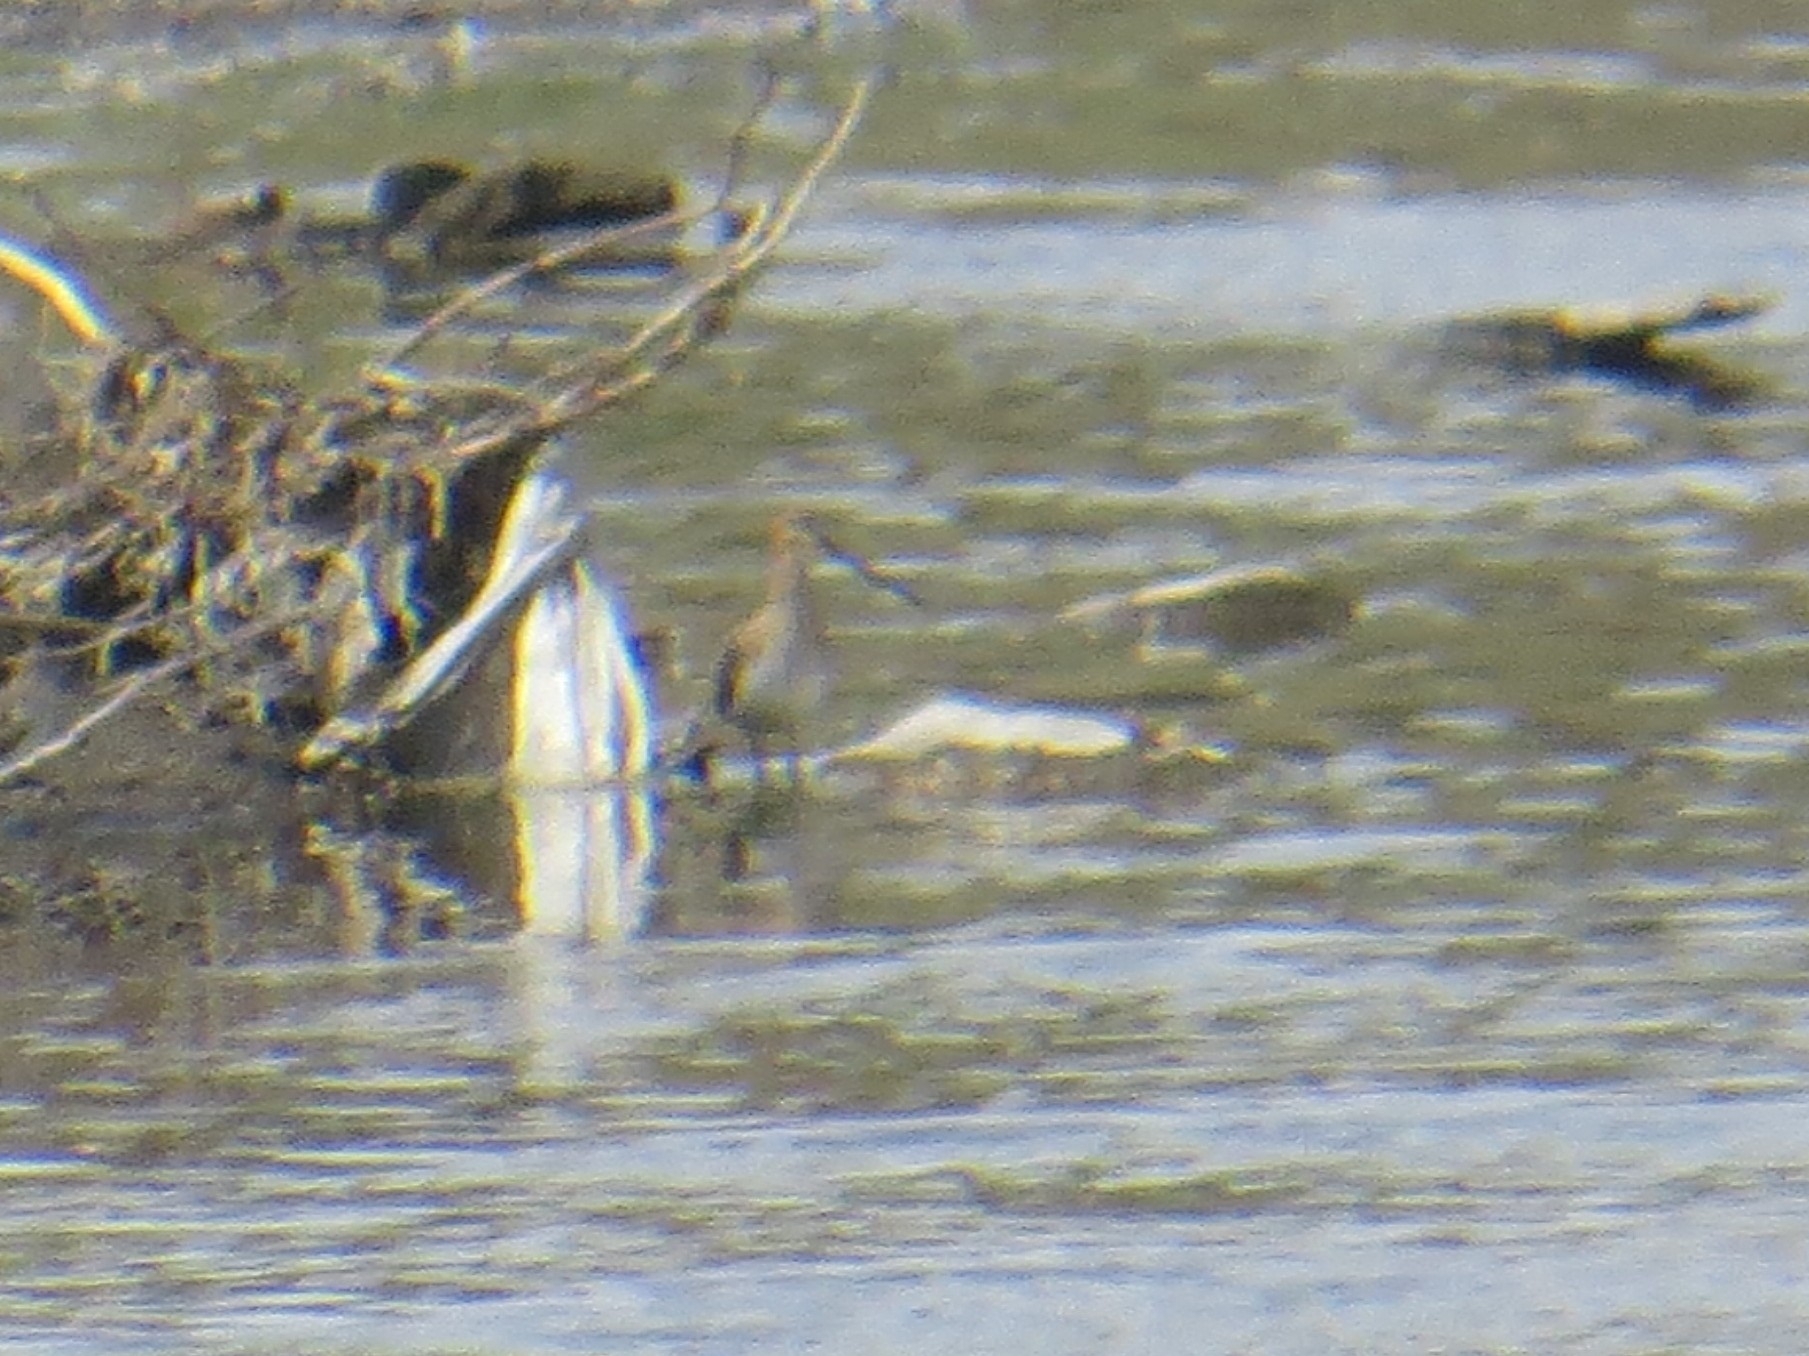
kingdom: Animalia
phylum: Chordata
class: Aves
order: Charadriiformes
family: Scolopacidae
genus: Gallinago
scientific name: Gallinago gallinago
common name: Common snipe
